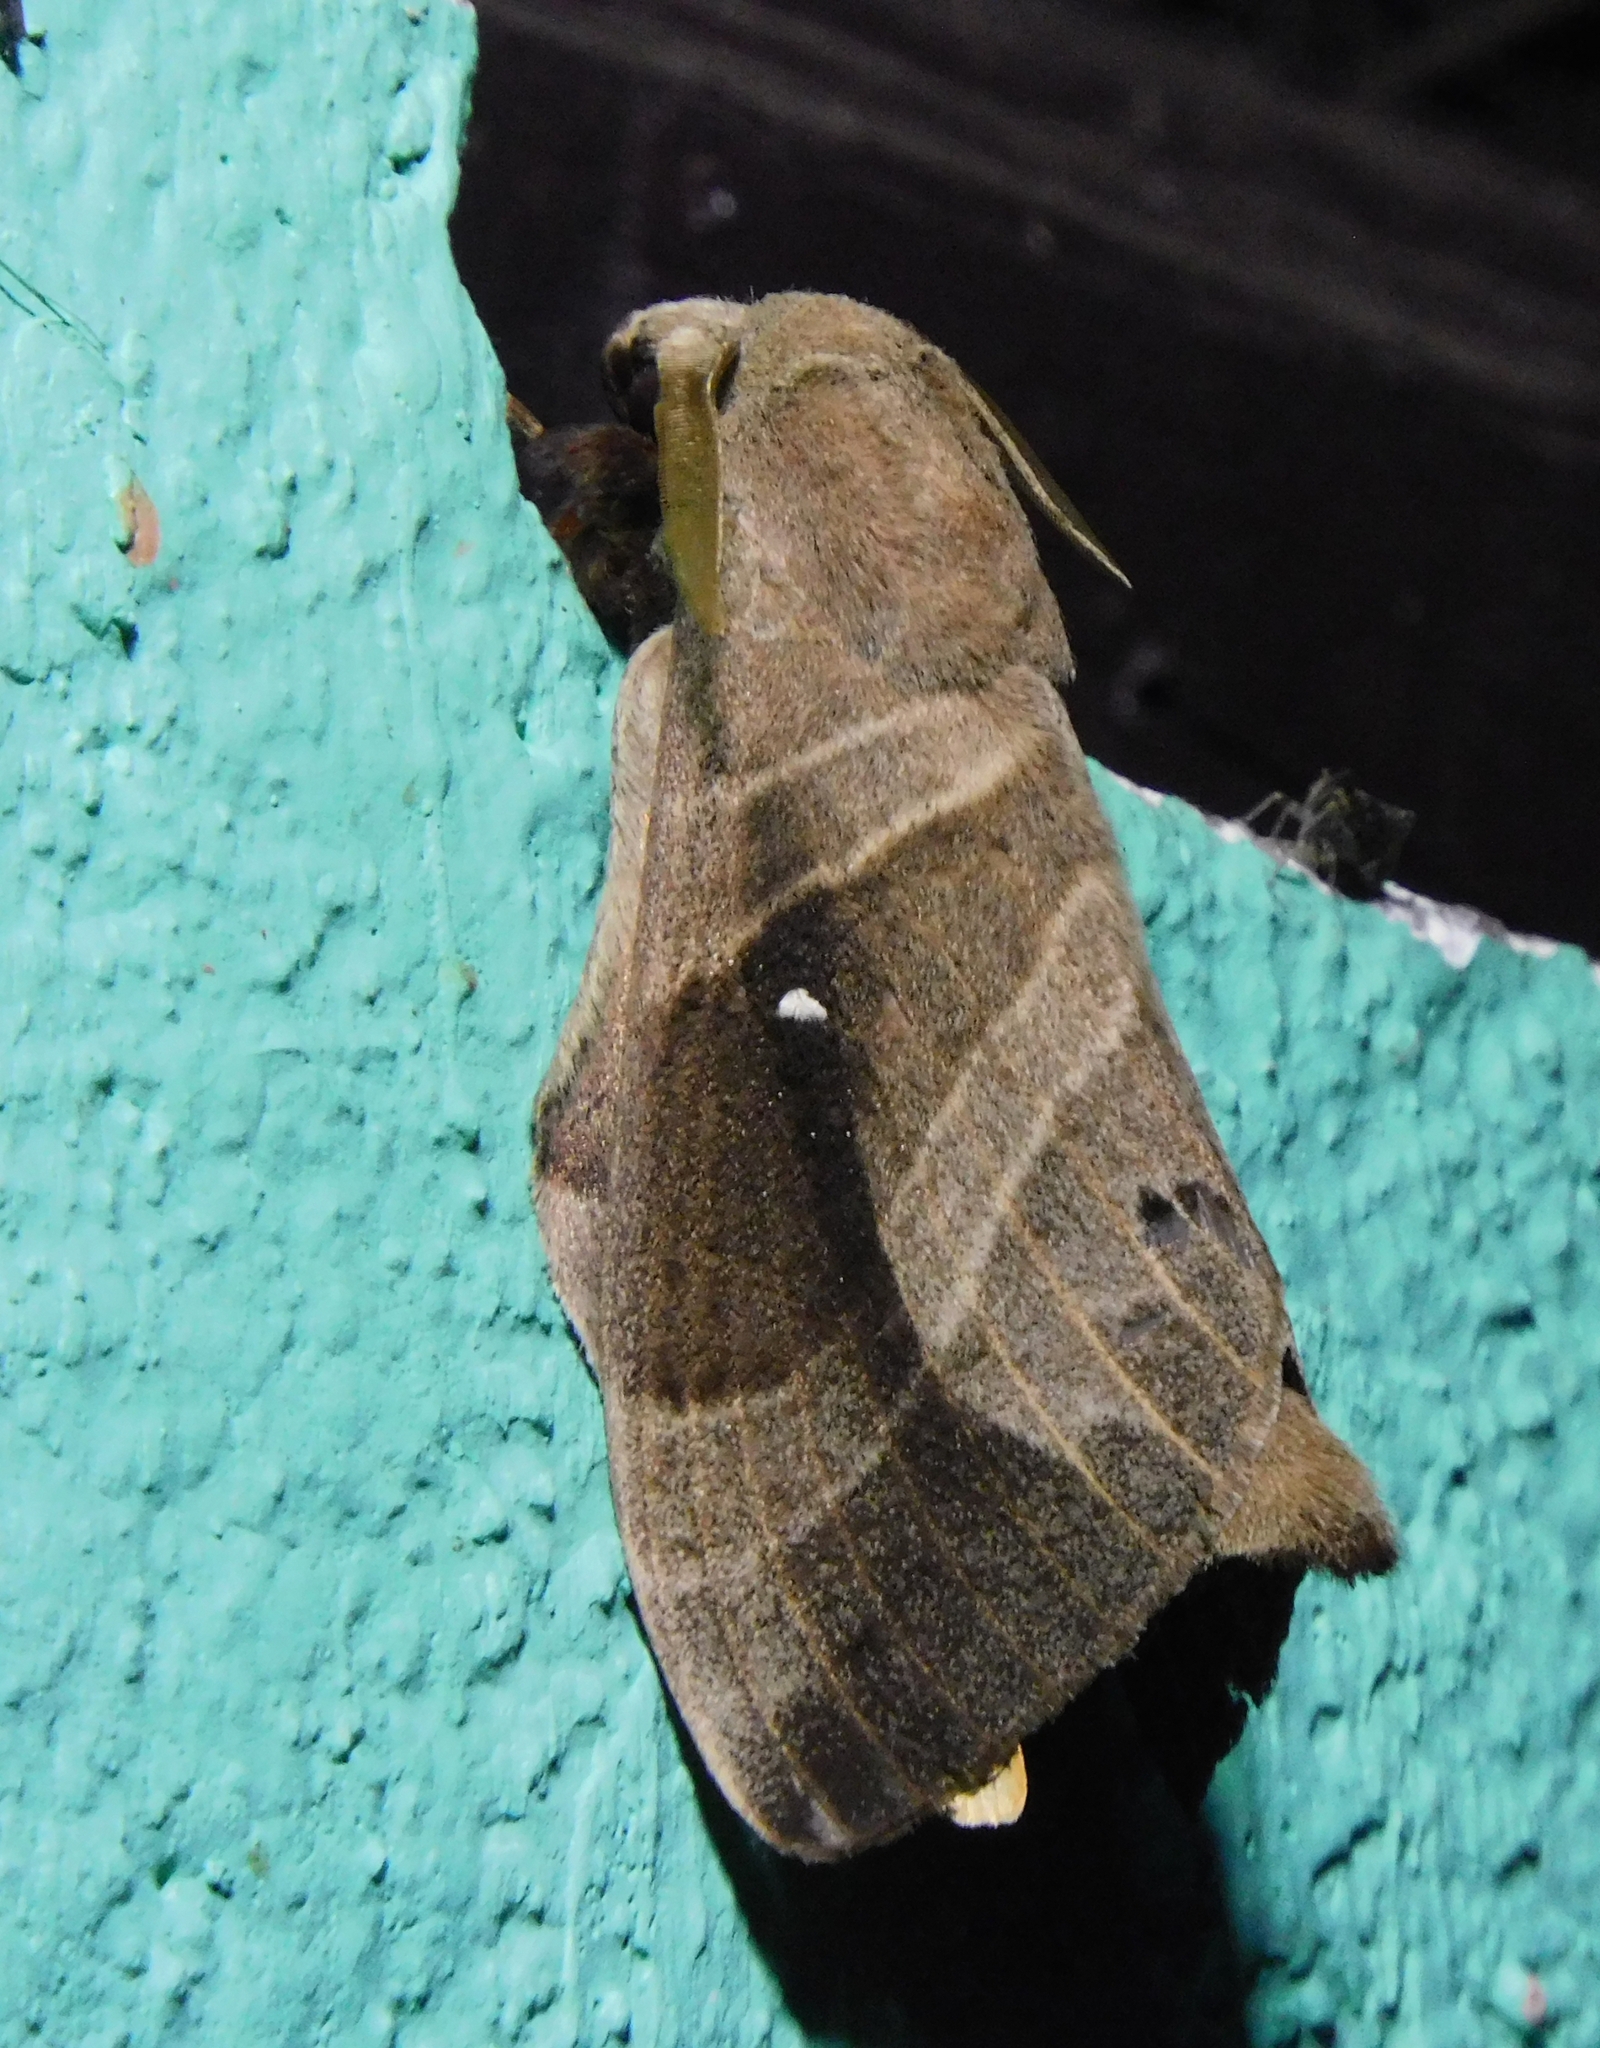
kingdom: Animalia
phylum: Arthropoda
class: Insecta
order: Lepidoptera
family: Lasiocampidae
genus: Lebeda
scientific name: Lebeda nobilis
